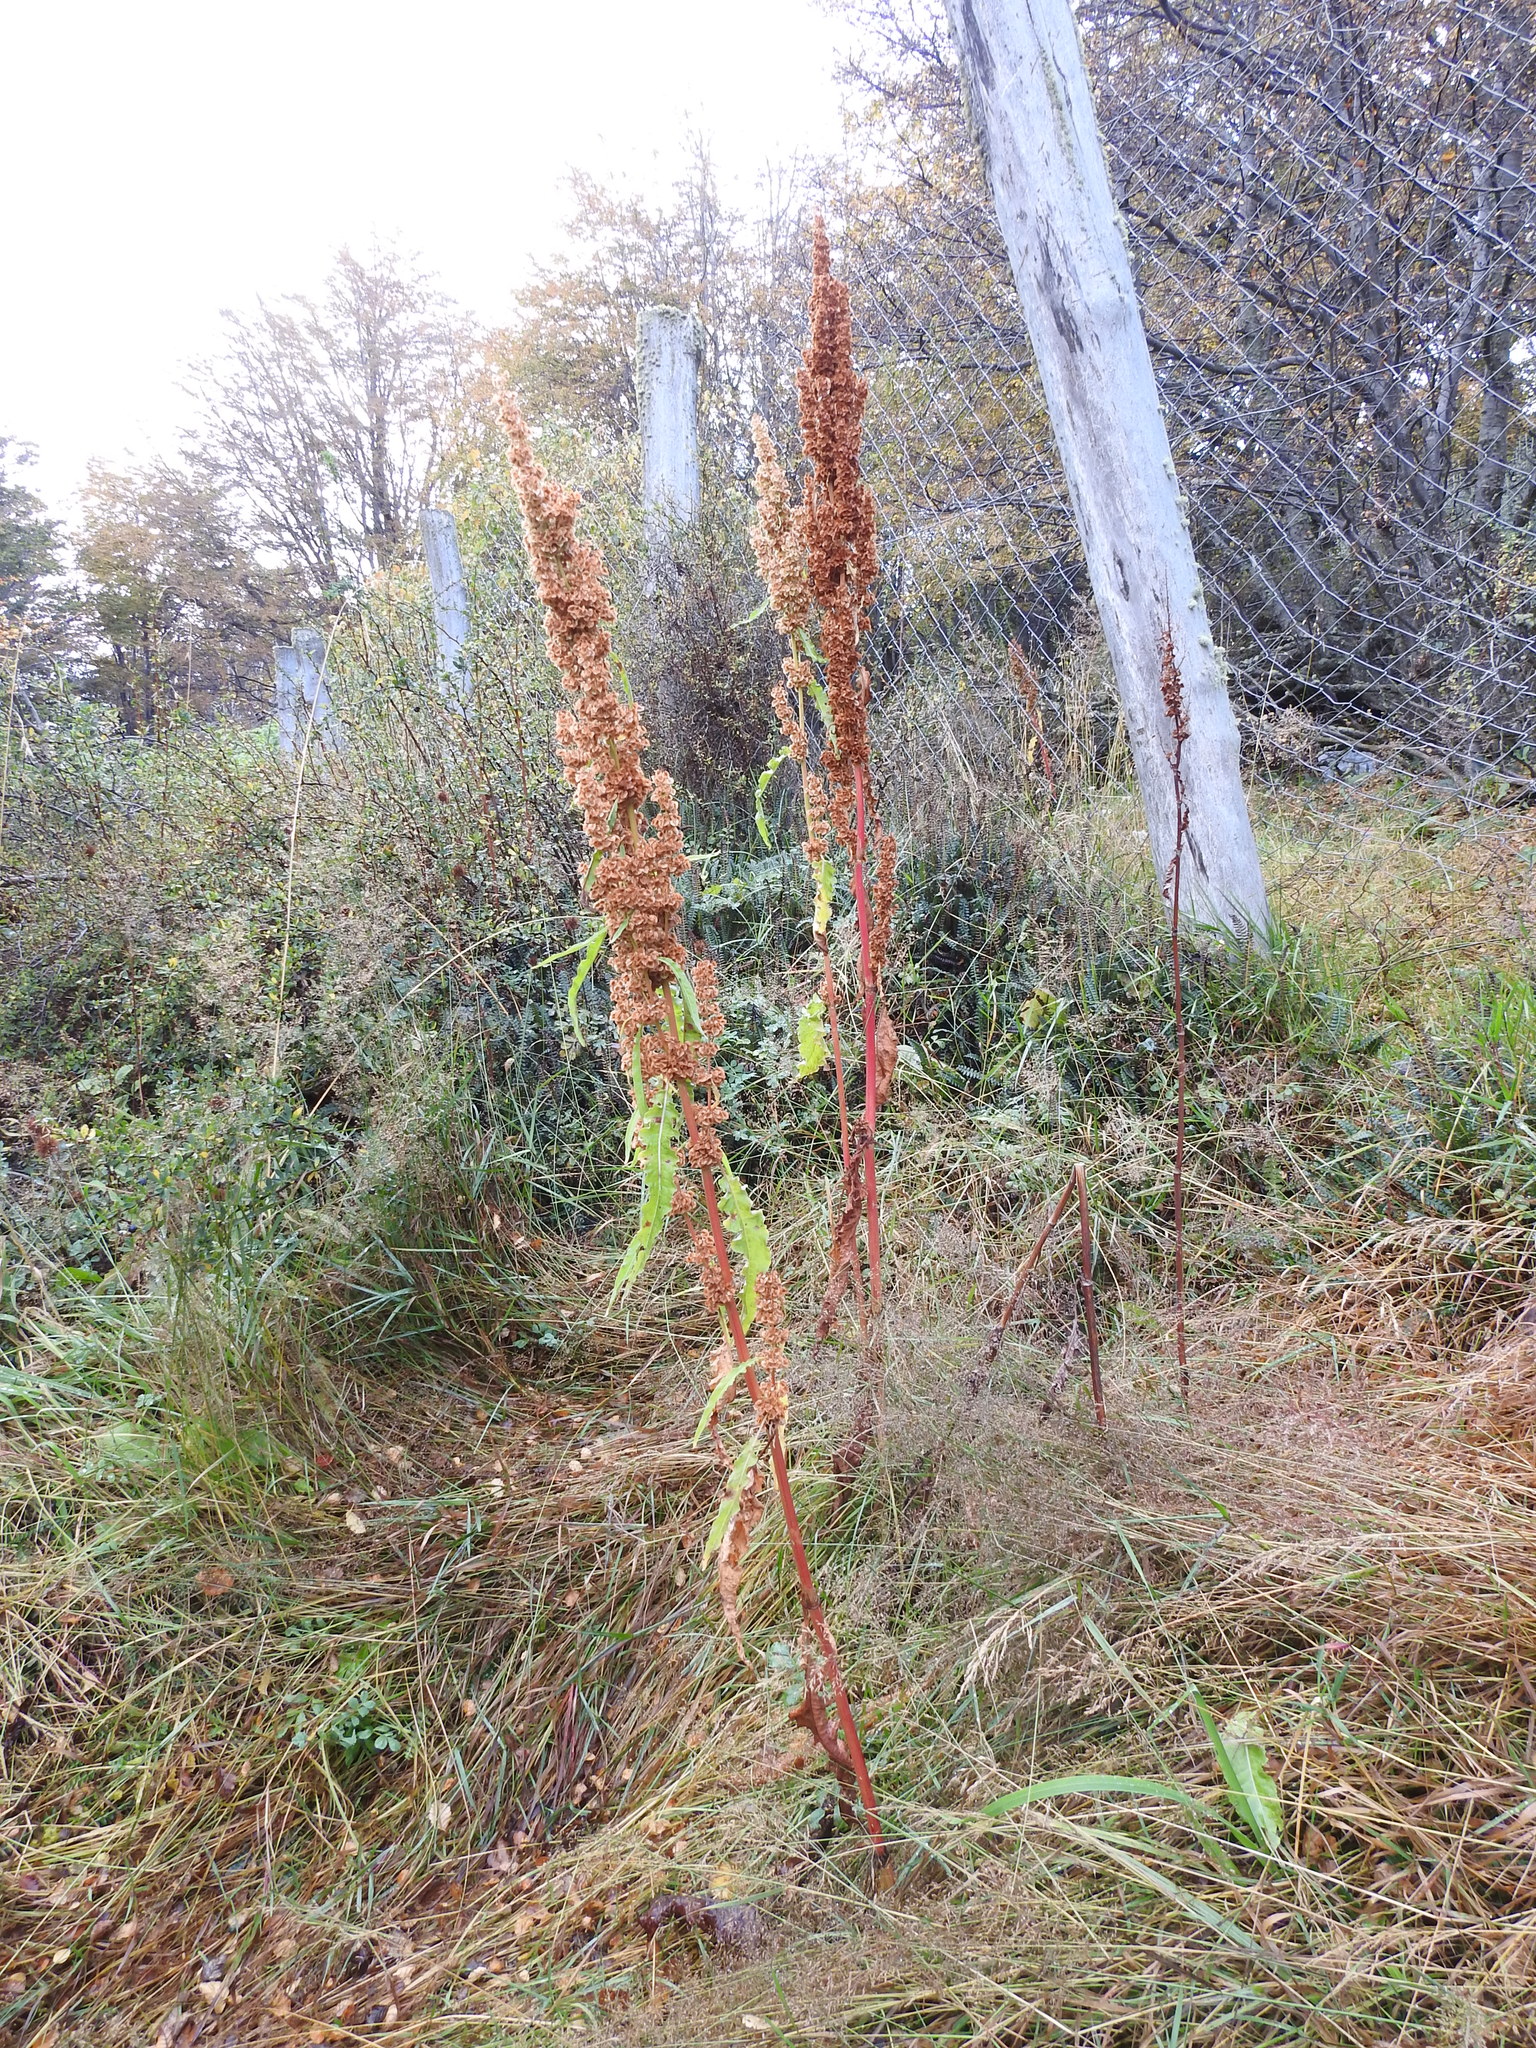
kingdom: Plantae
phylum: Tracheophyta
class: Magnoliopsida
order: Caryophyllales
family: Polygonaceae
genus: Rumex
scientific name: Rumex crispus
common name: Curled dock
